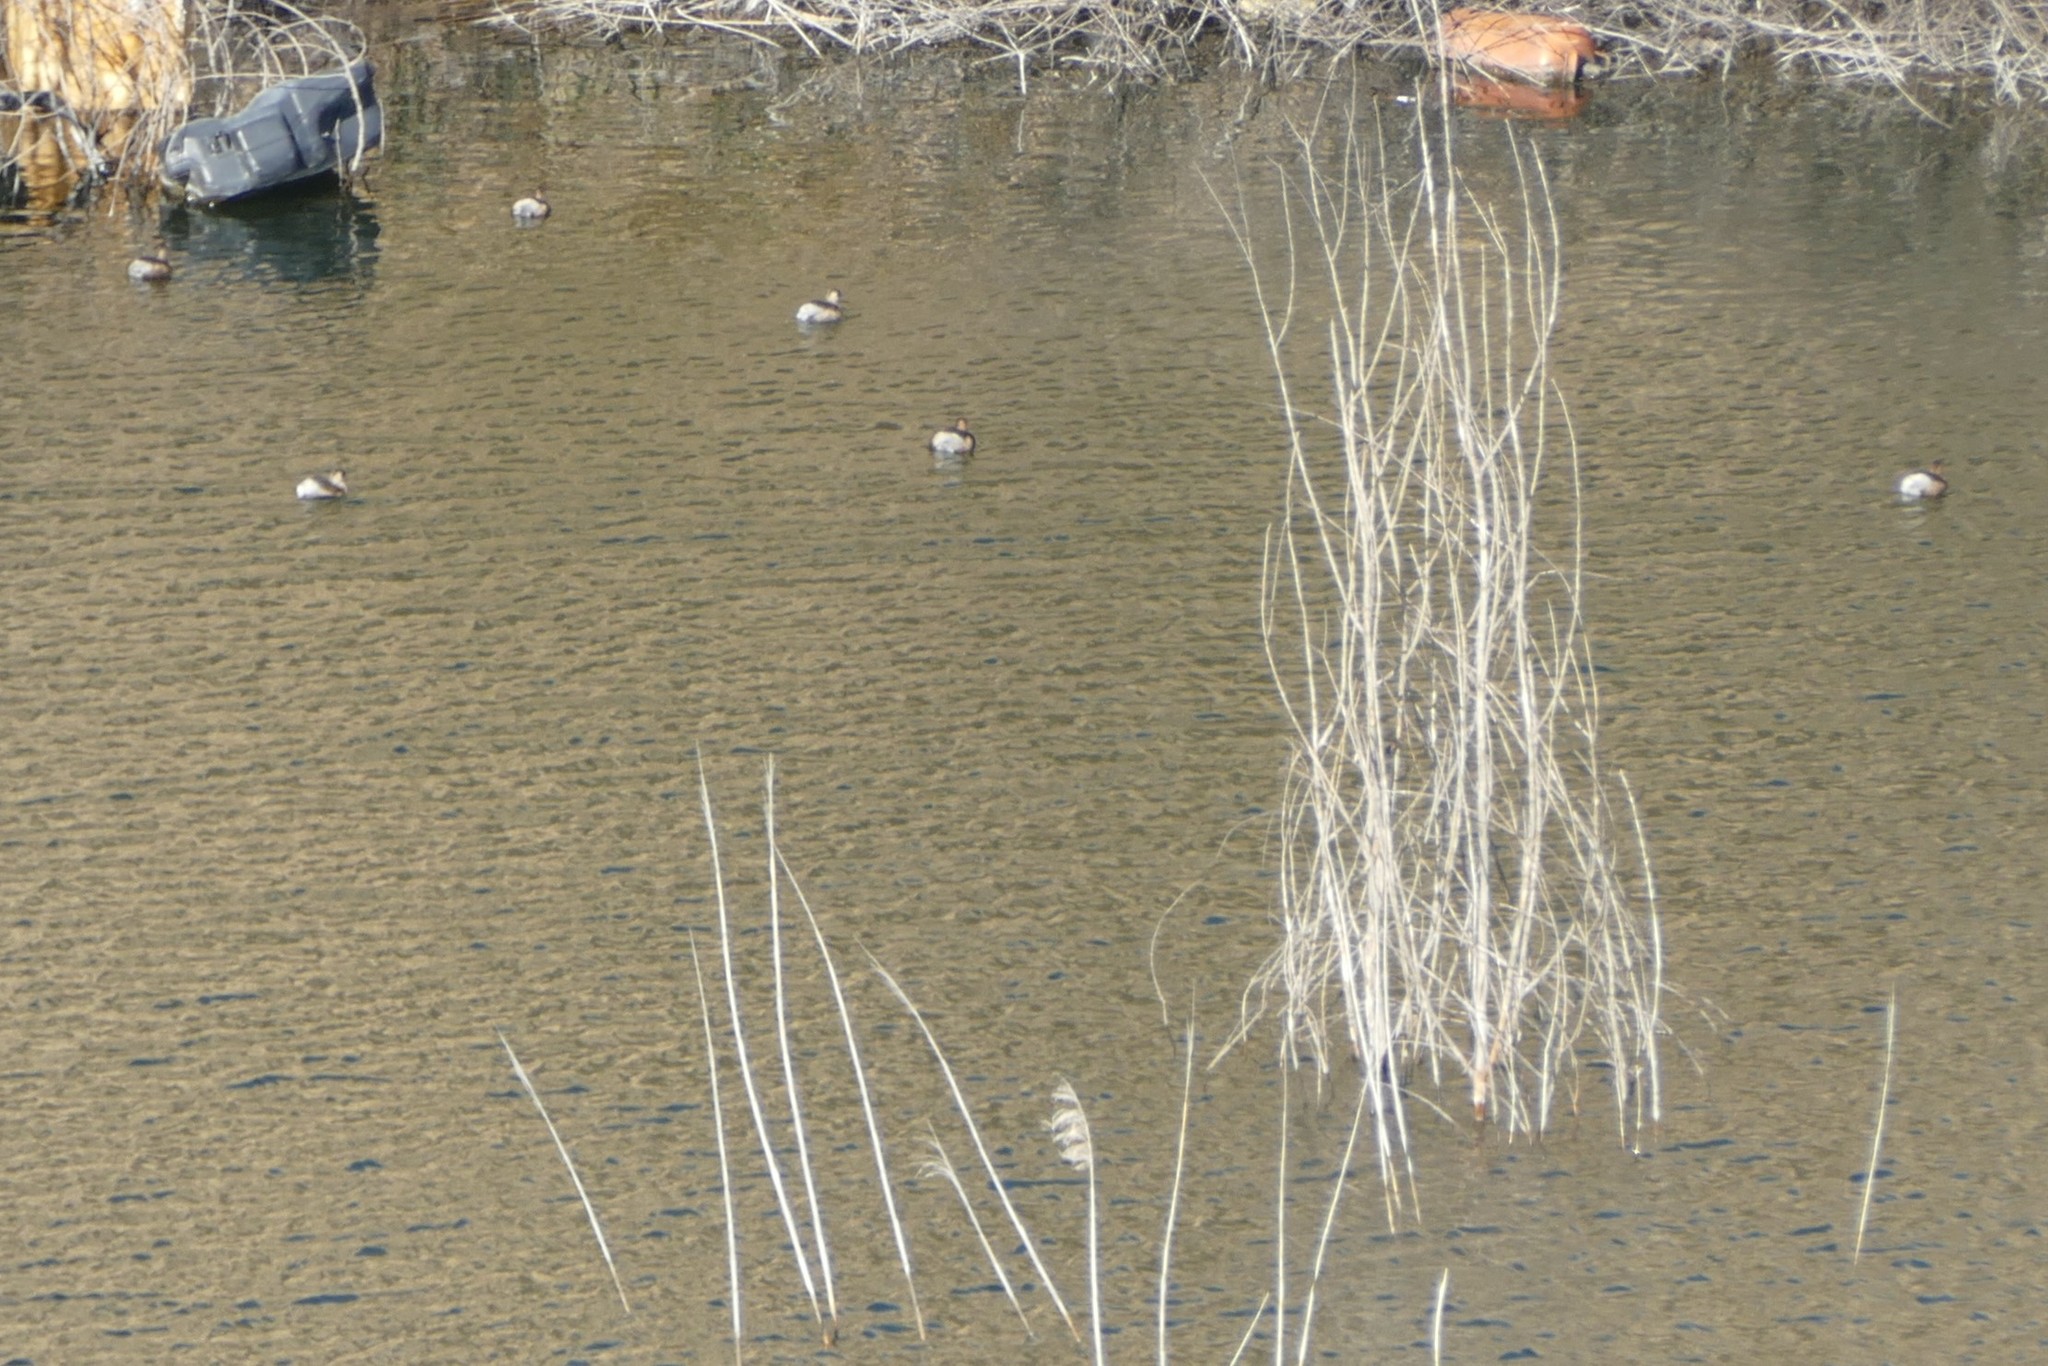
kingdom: Animalia
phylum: Chordata
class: Aves
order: Podicipediformes
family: Podicipedidae
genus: Tachybaptus
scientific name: Tachybaptus ruficollis
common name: Little grebe
